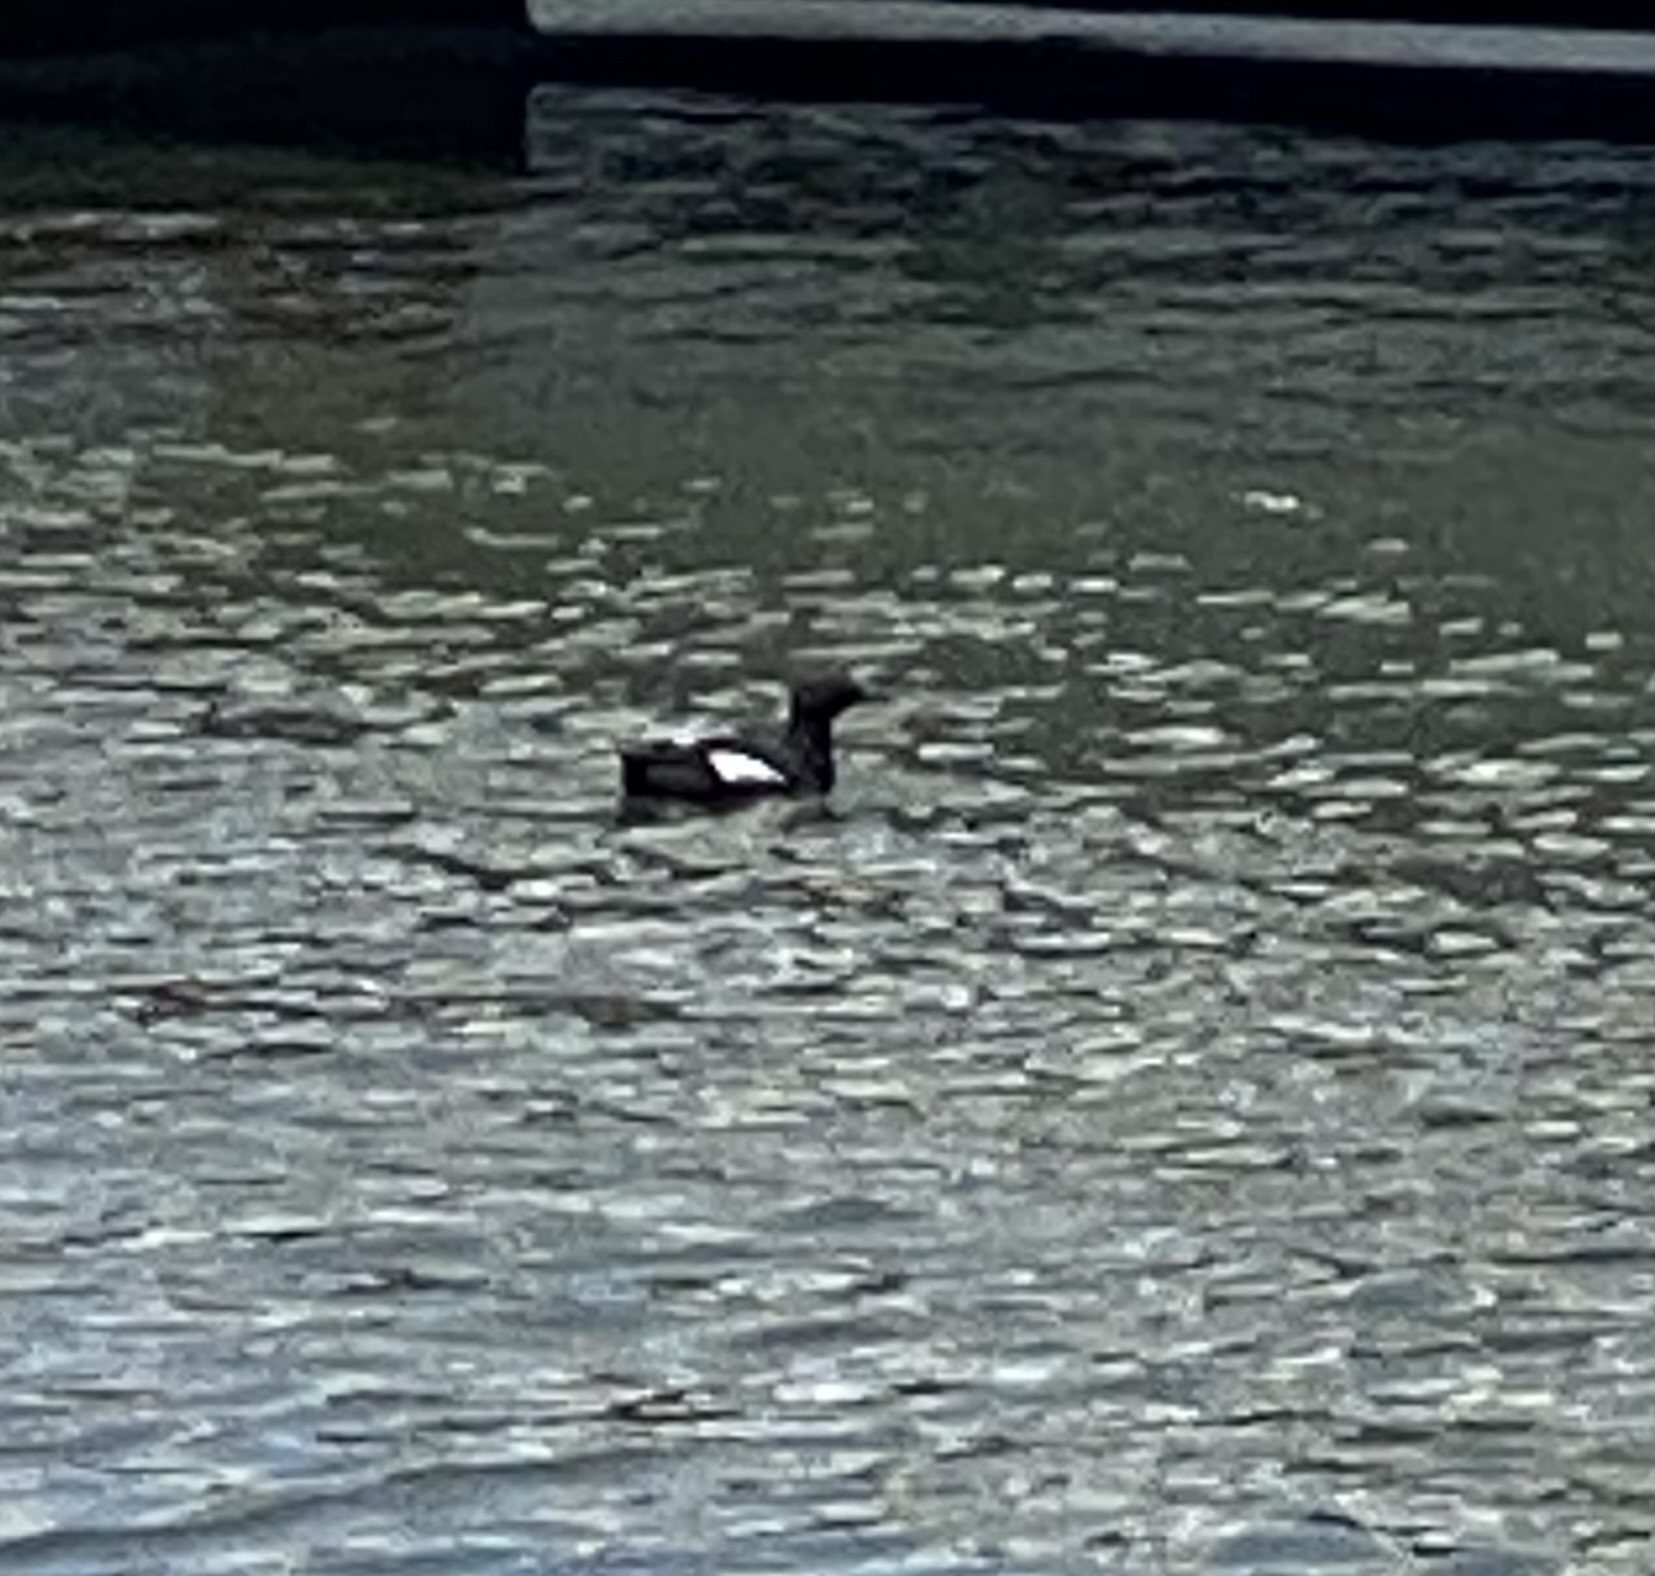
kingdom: Animalia
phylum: Chordata
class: Aves
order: Charadriiformes
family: Alcidae
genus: Cepphus
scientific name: Cepphus columba
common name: Pigeon guillemot
